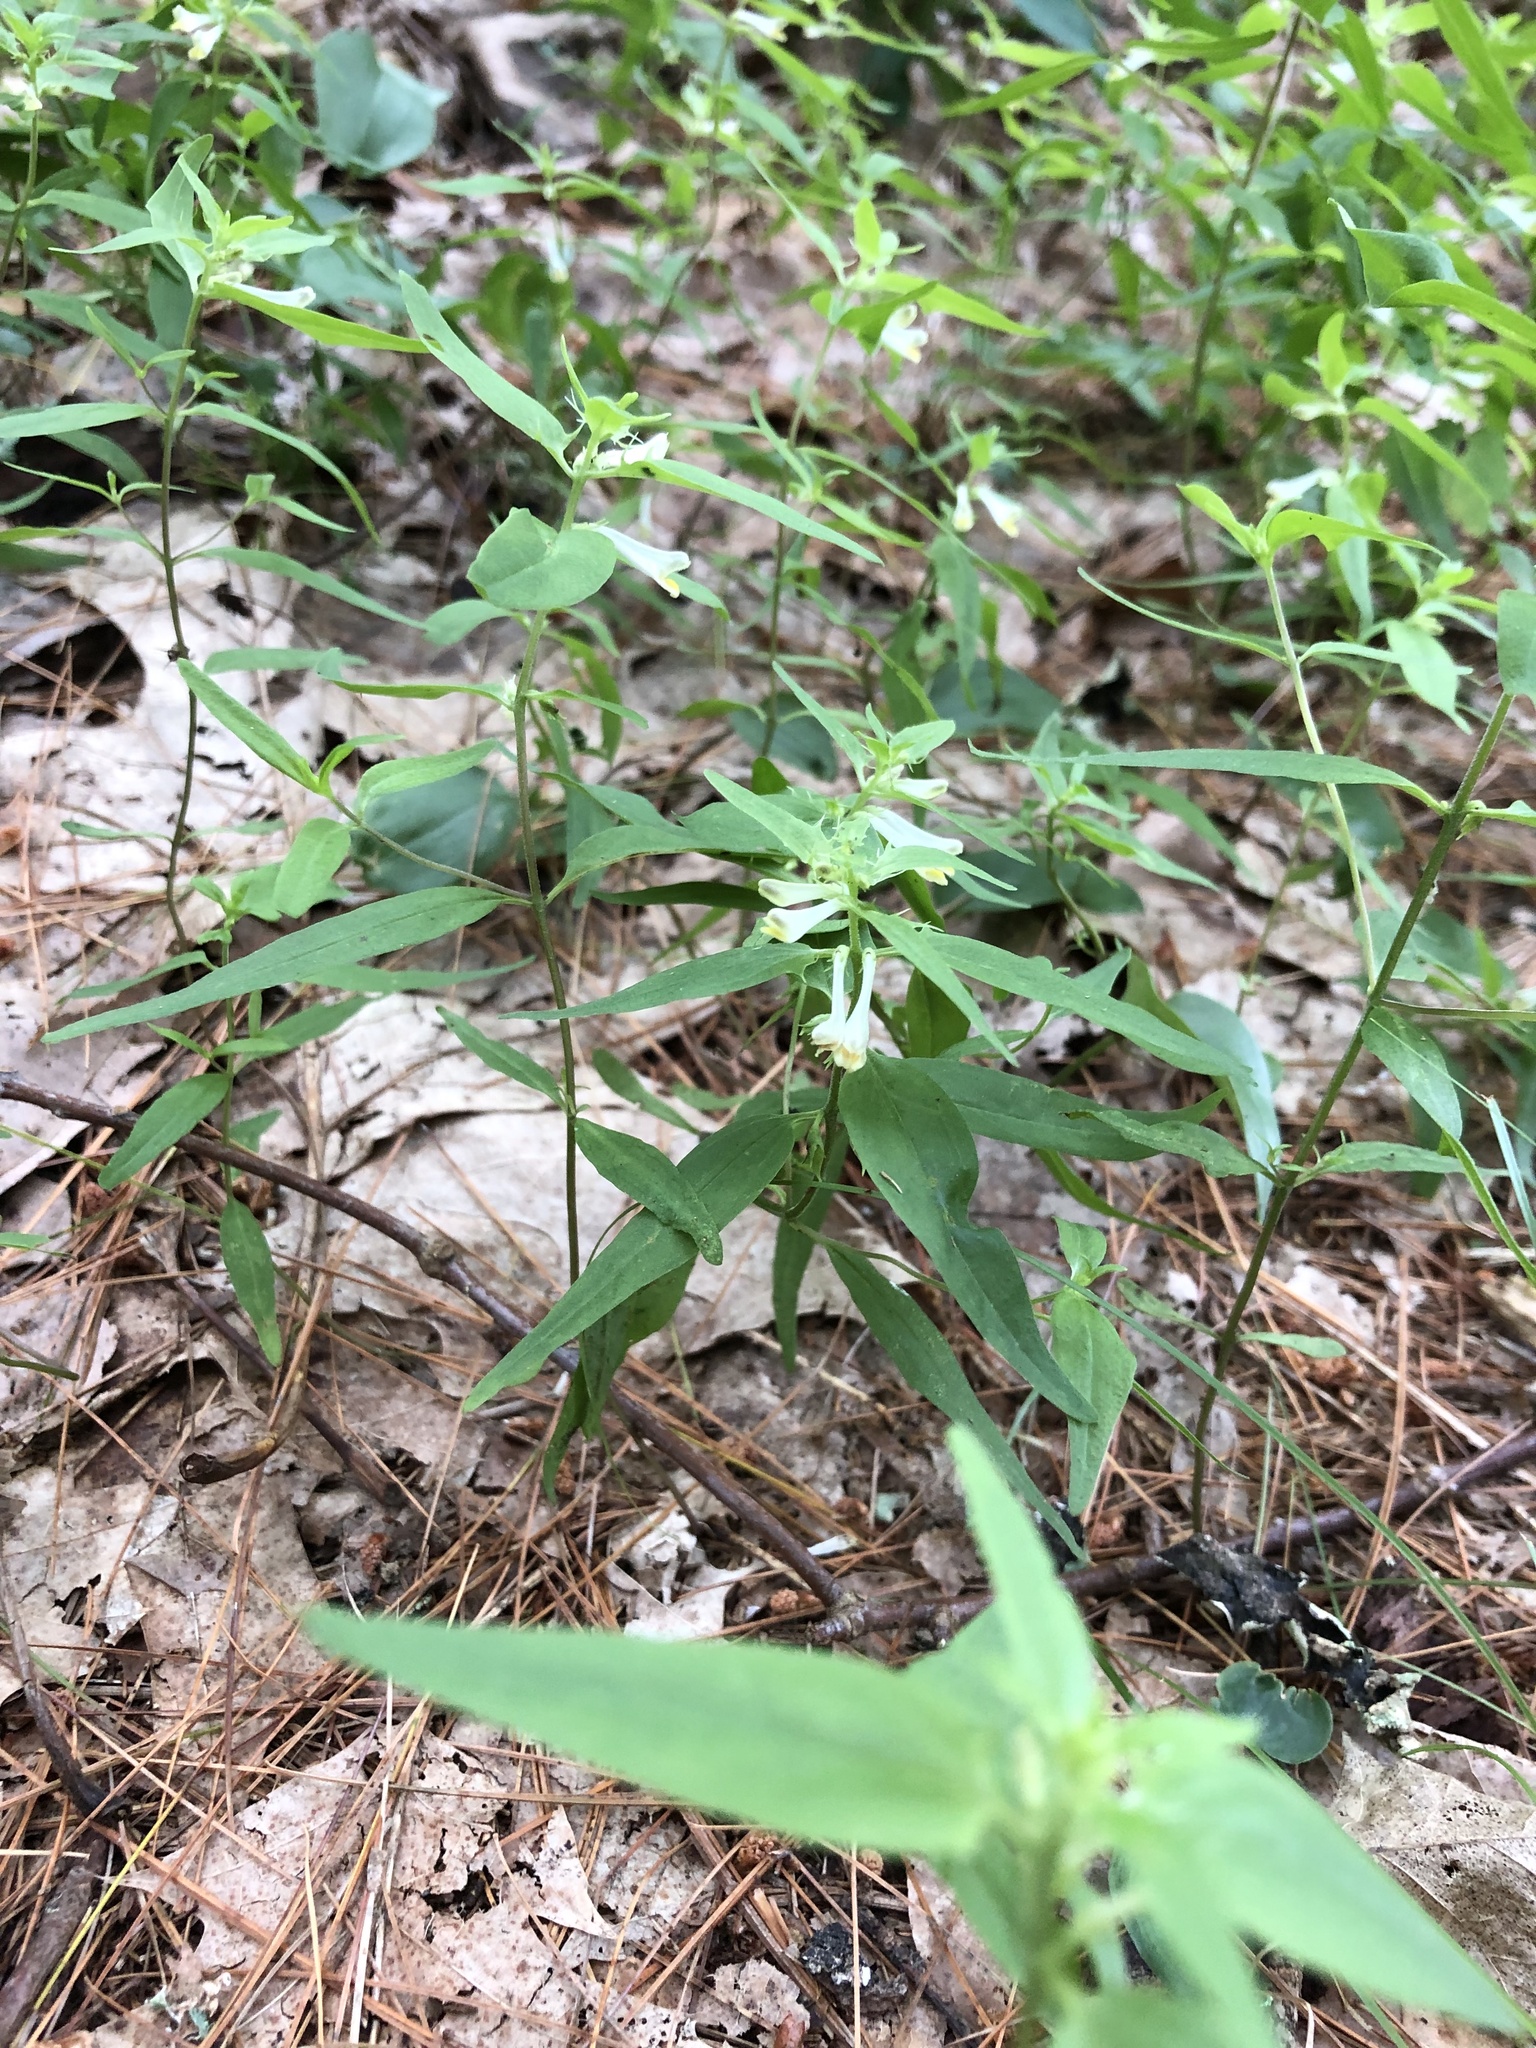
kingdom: Plantae
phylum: Tracheophyta
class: Magnoliopsida
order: Lamiales
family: Orobanchaceae
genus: Melampyrum
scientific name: Melampyrum lineare
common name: American cow-wheat
